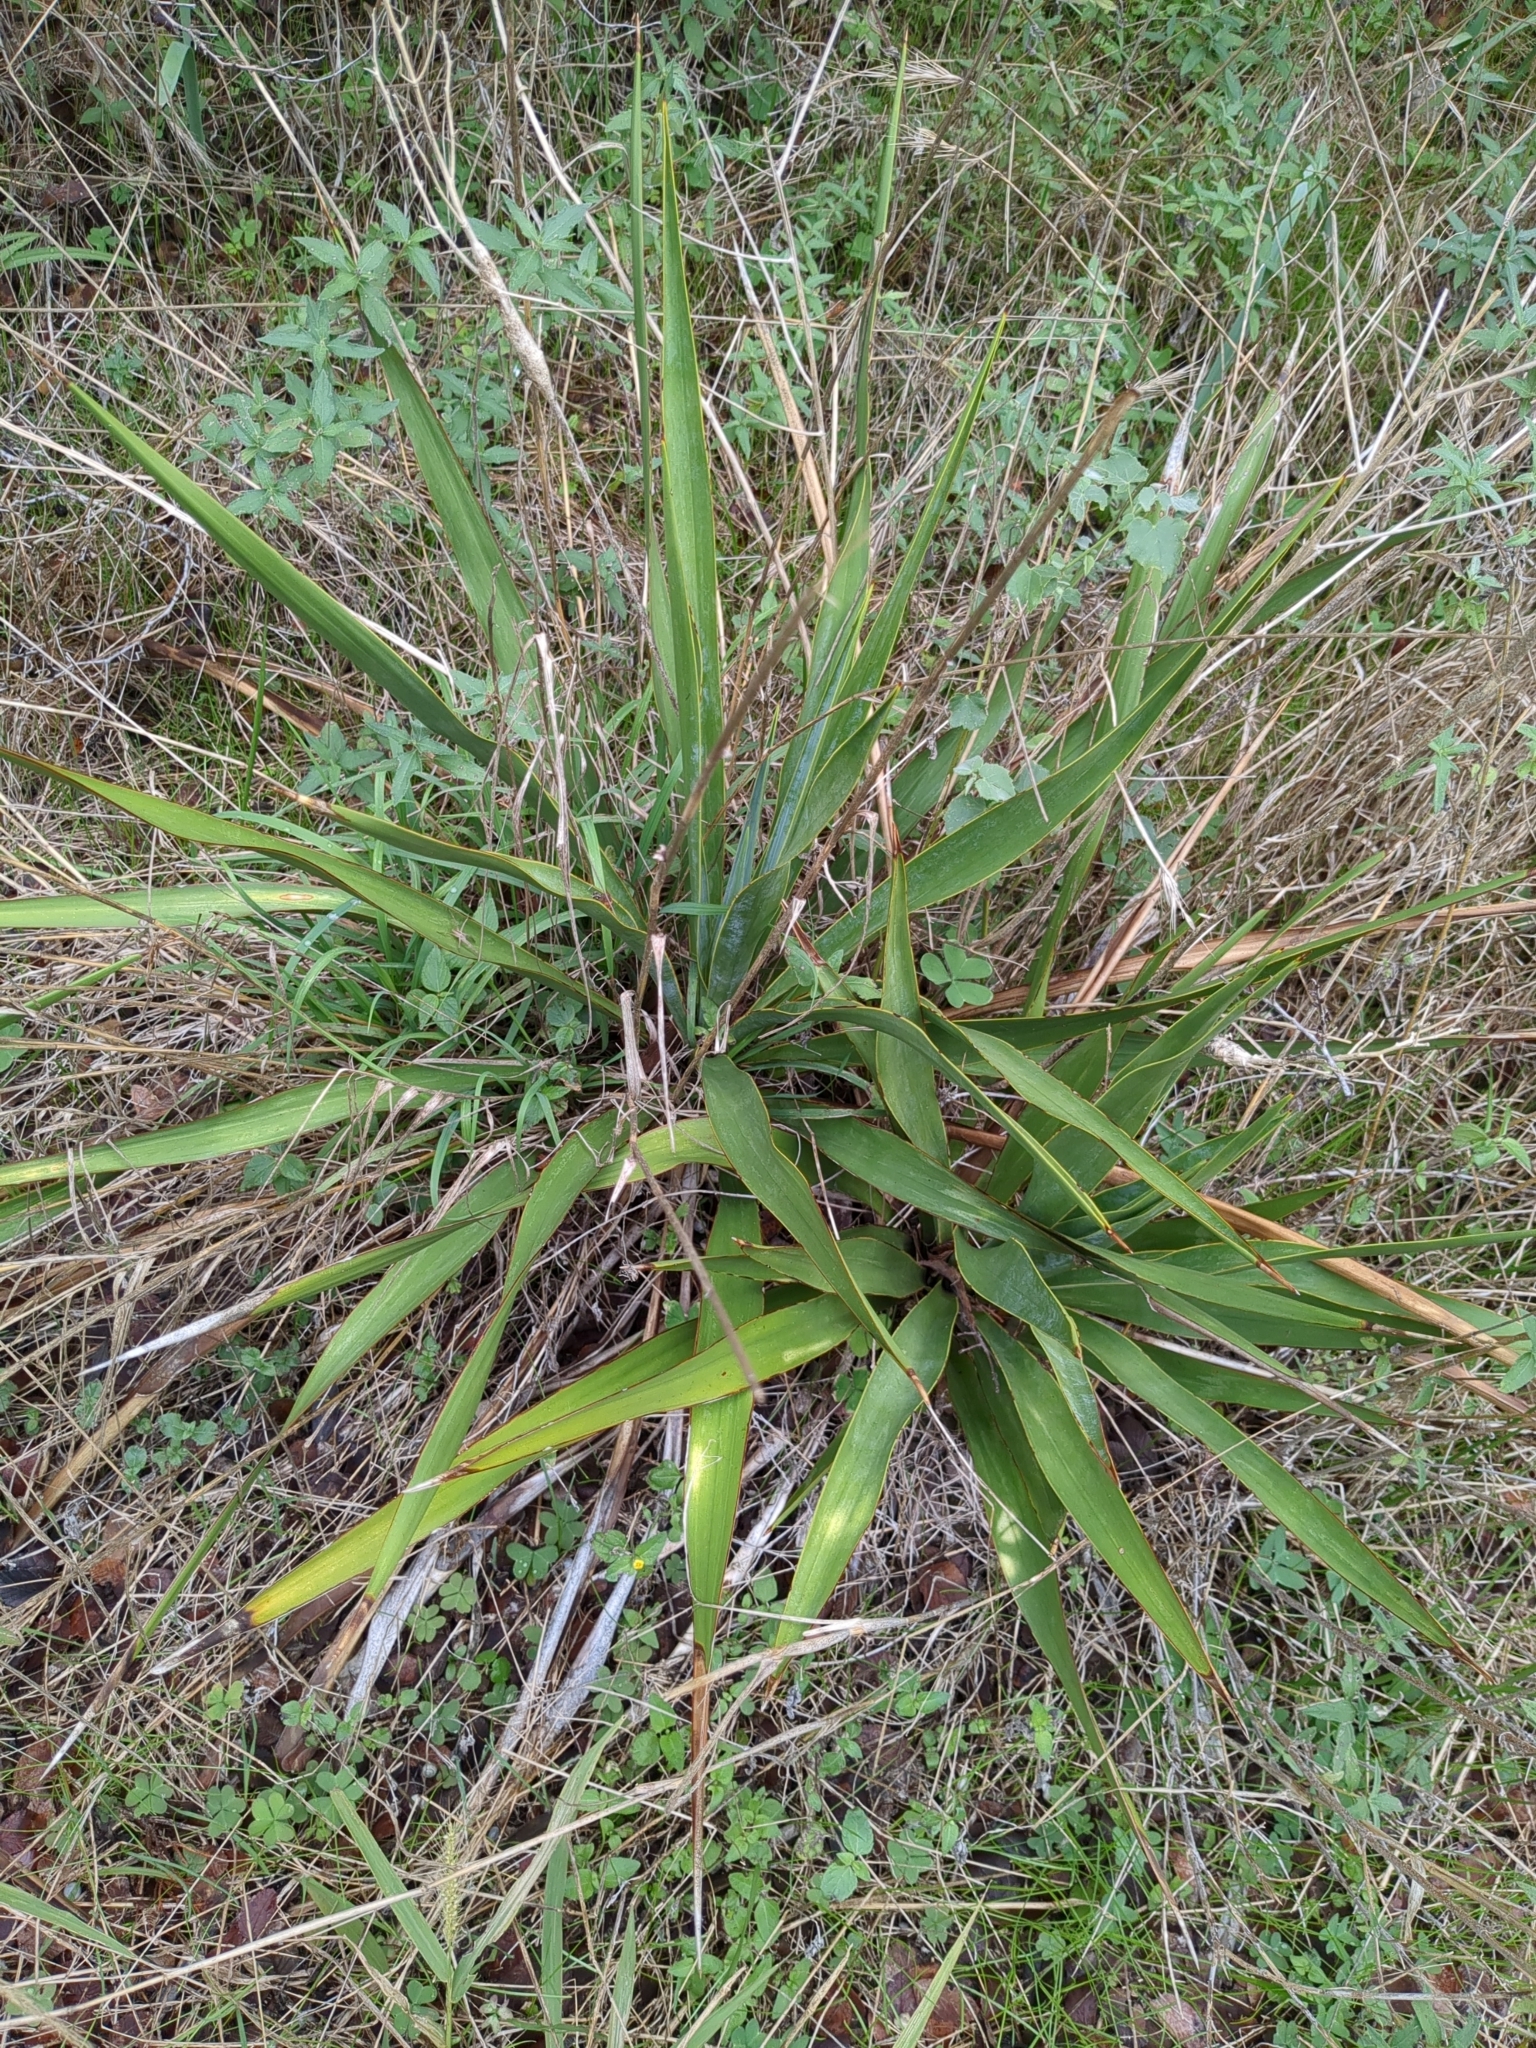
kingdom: Plantae
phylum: Tracheophyta
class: Liliopsida
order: Asparagales
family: Asparagaceae
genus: Yucca
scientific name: Yucca rupicola
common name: Twisted-leaf spanish-dagger
